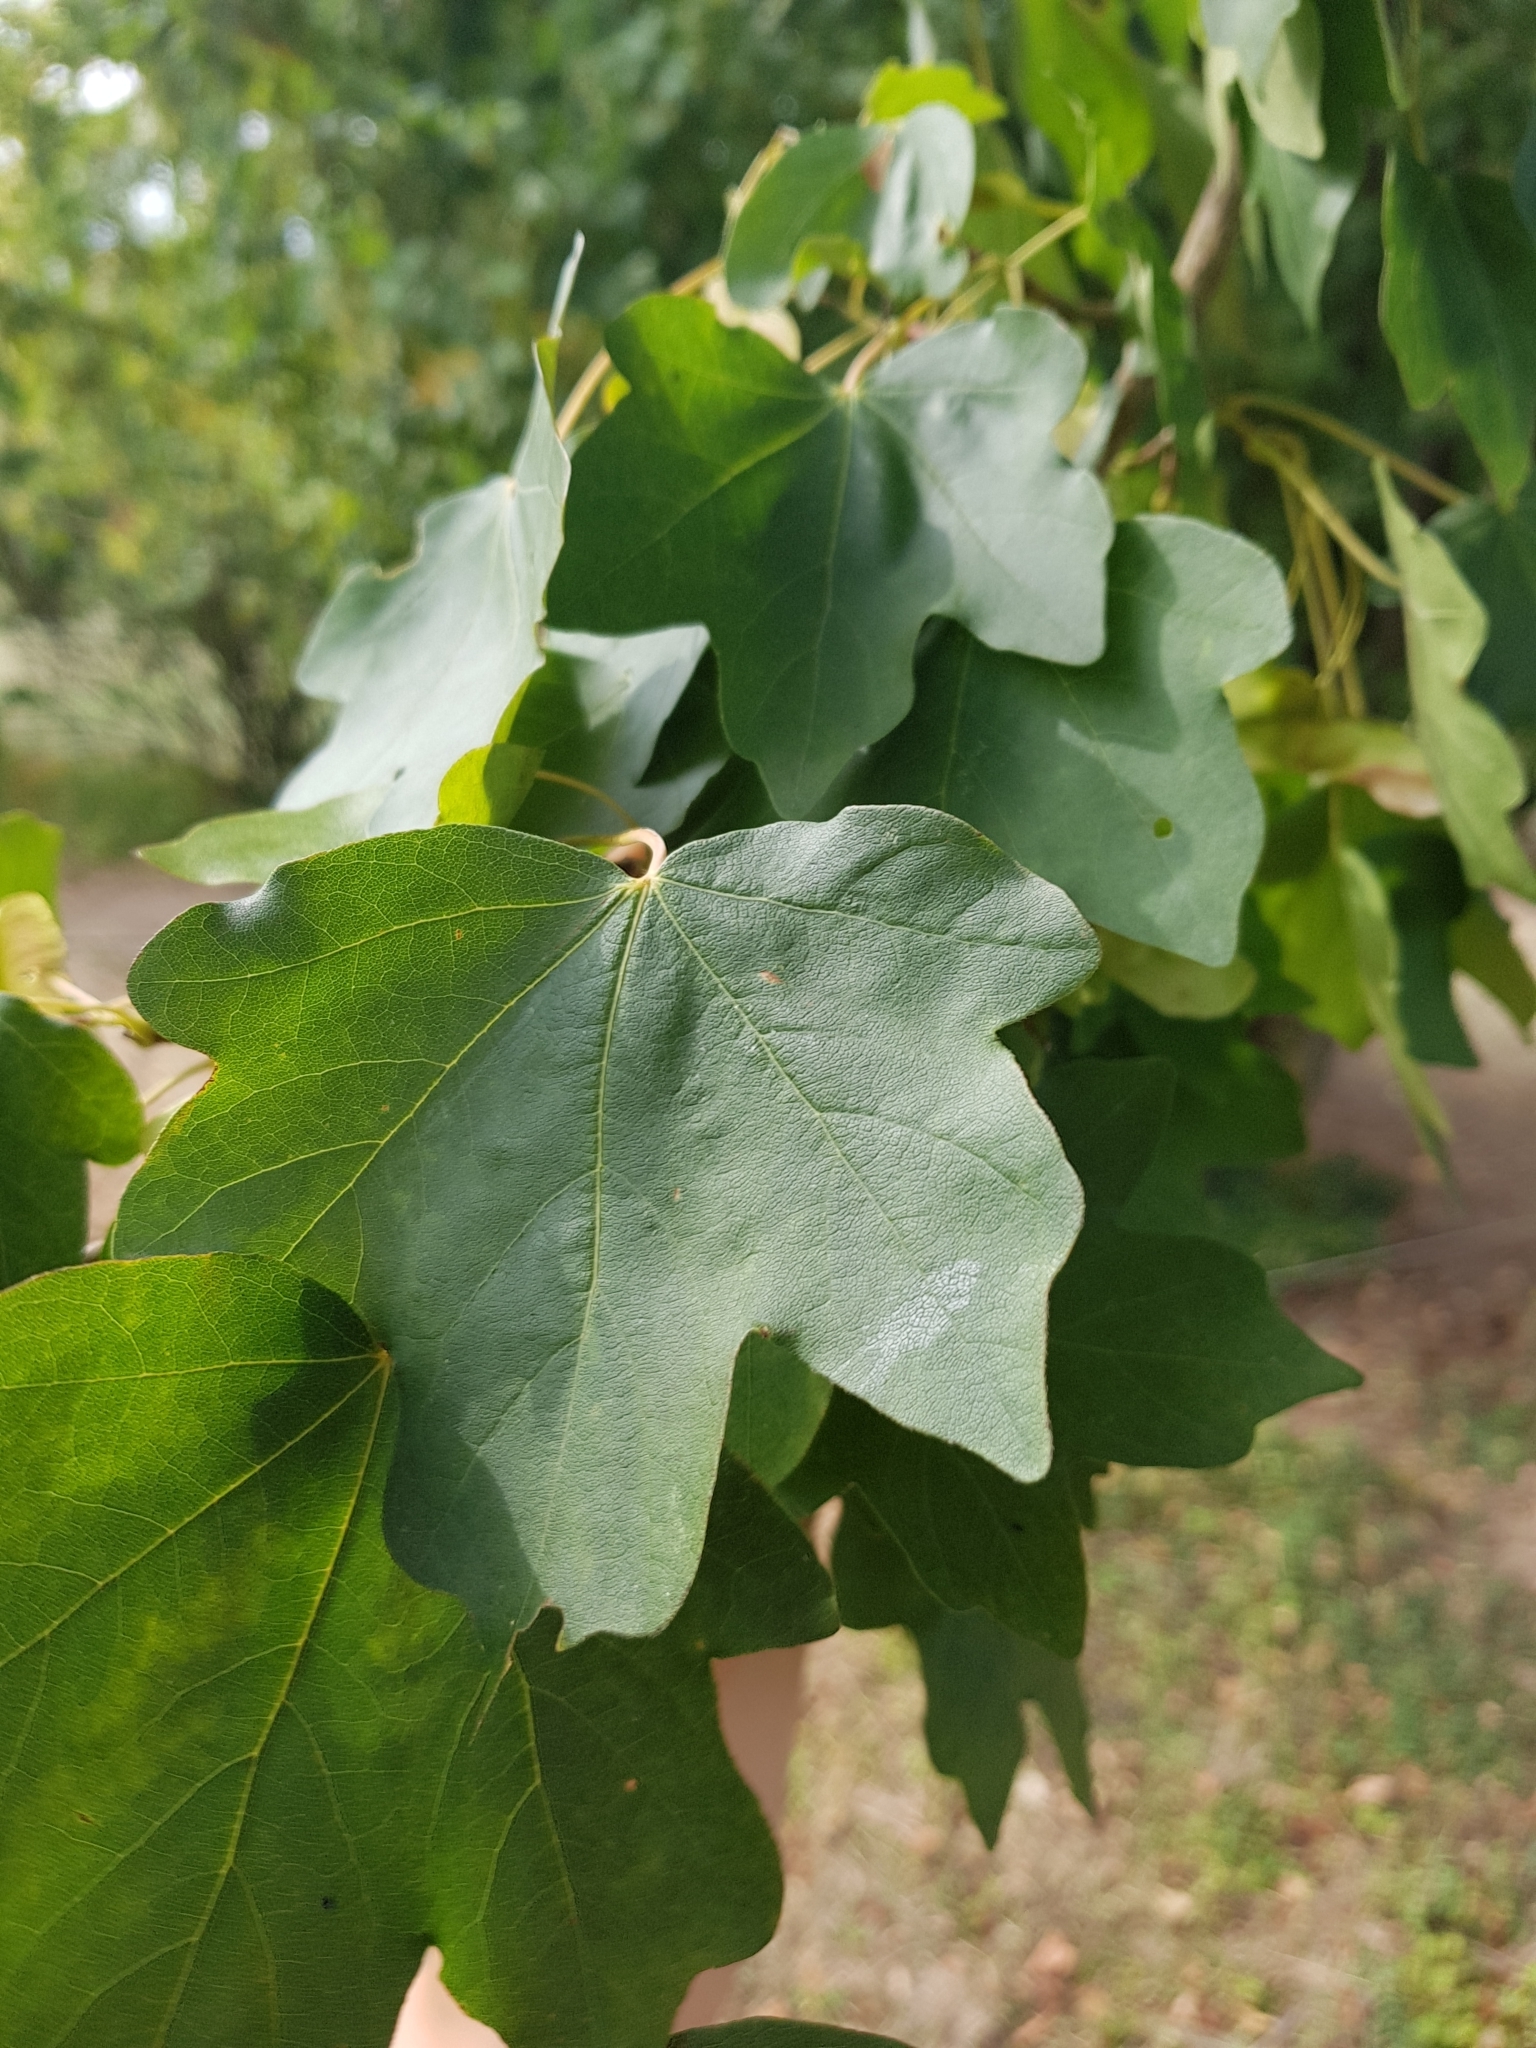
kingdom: Plantae
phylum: Tracheophyta
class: Magnoliopsida
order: Sapindales
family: Sapindaceae
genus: Acer
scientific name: Acer campestre
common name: Field maple
